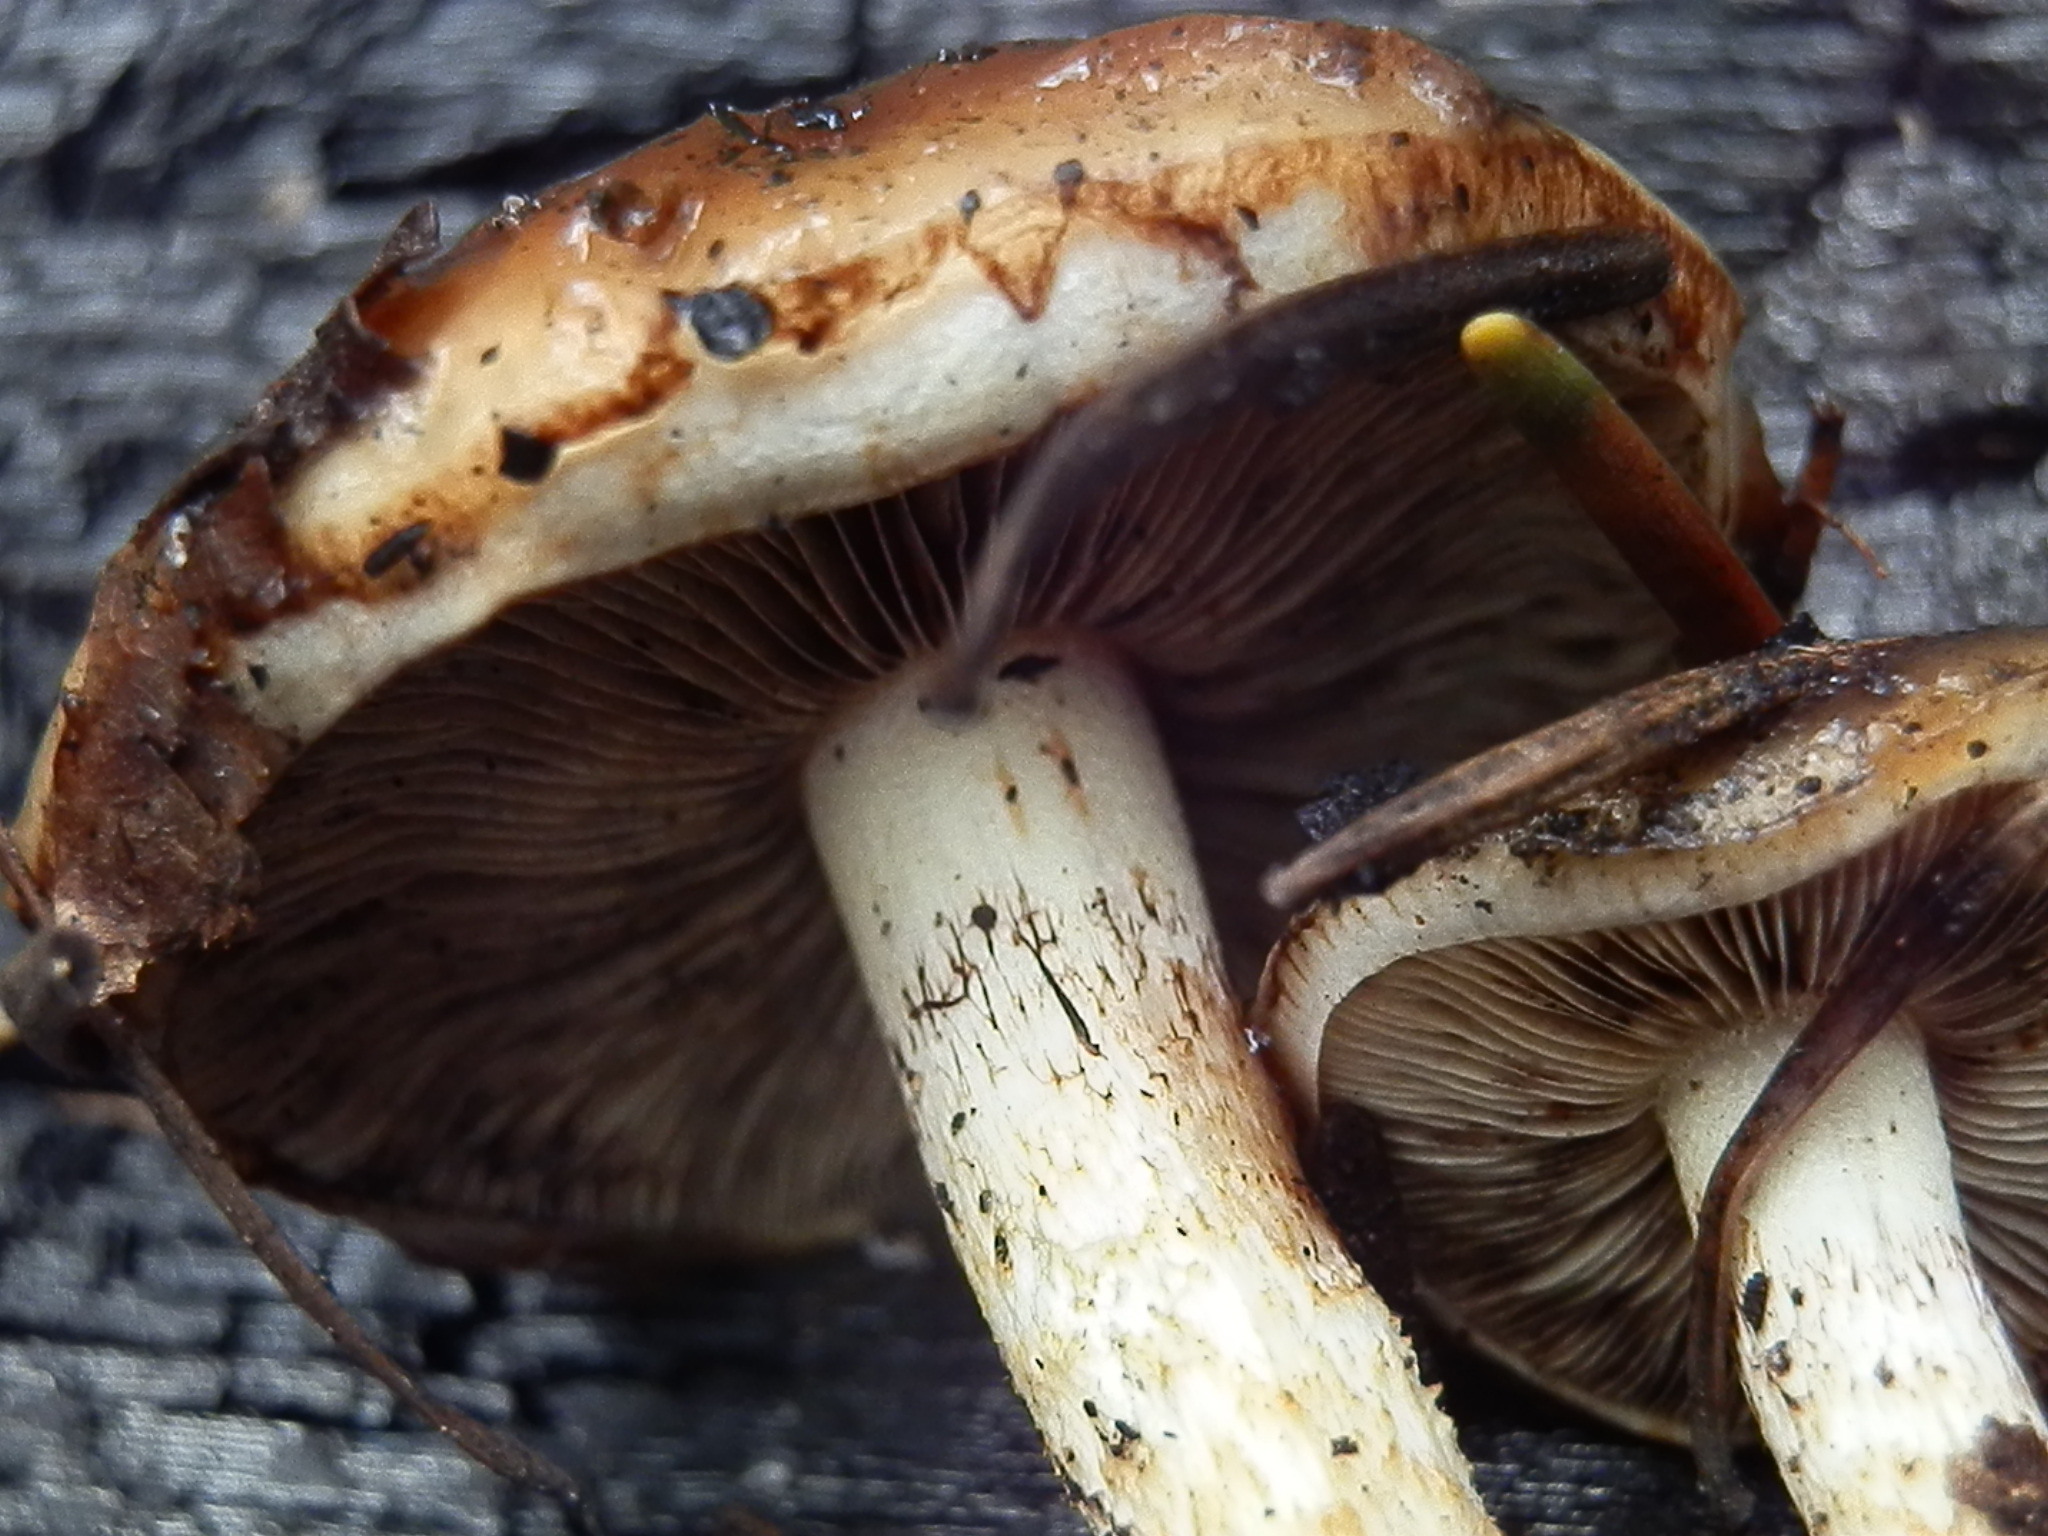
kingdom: Fungi
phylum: Basidiomycota
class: Agaricomycetes
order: Agaricales
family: Strophariaceae
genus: Pholiota
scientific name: Pholiota brunnescens
